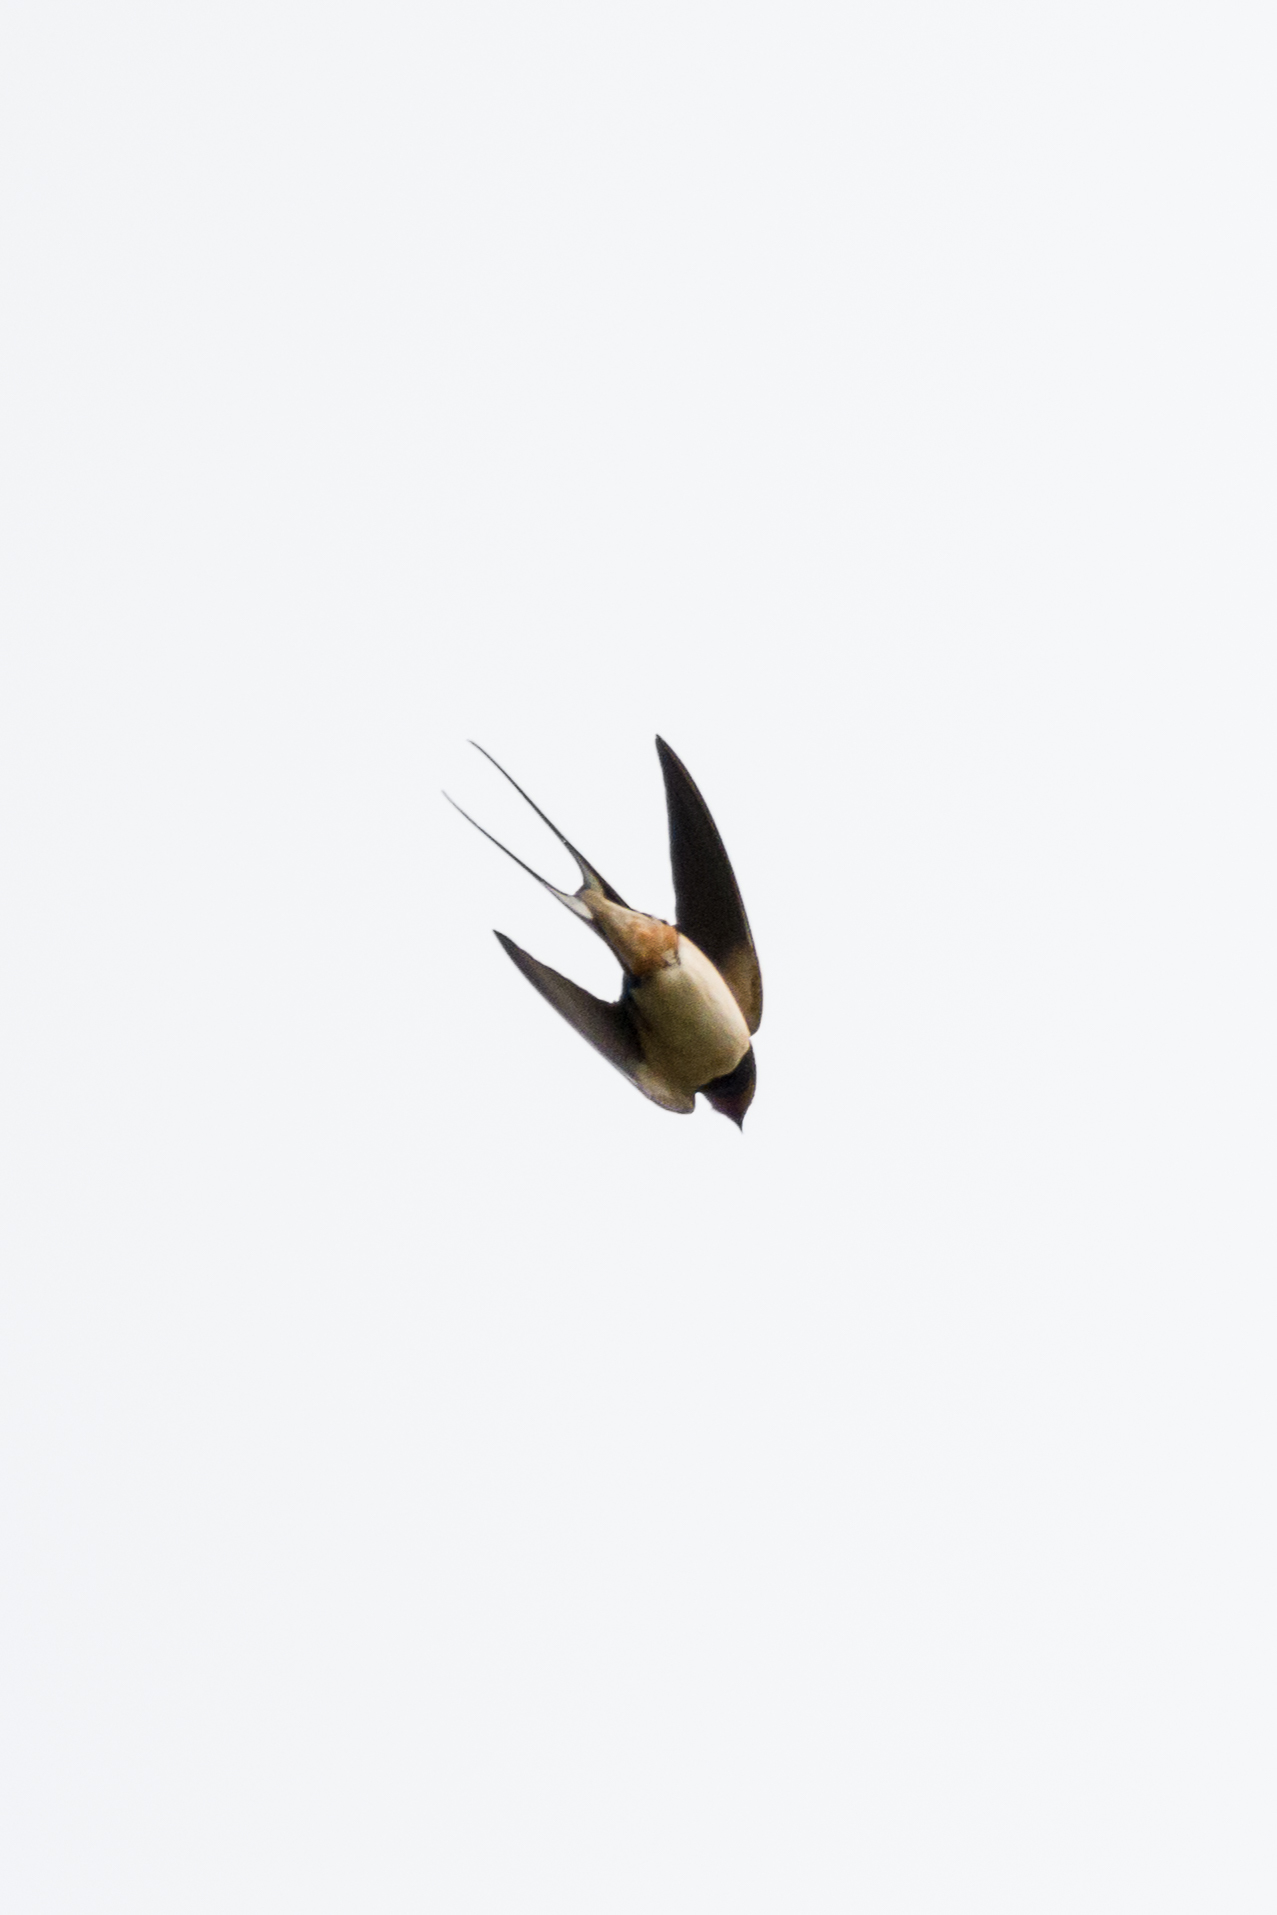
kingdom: Animalia
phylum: Chordata
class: Aves
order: Passeriformes
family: Hirundinidae
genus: Hirundo
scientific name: Hirundo rustica
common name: Barn swallow
